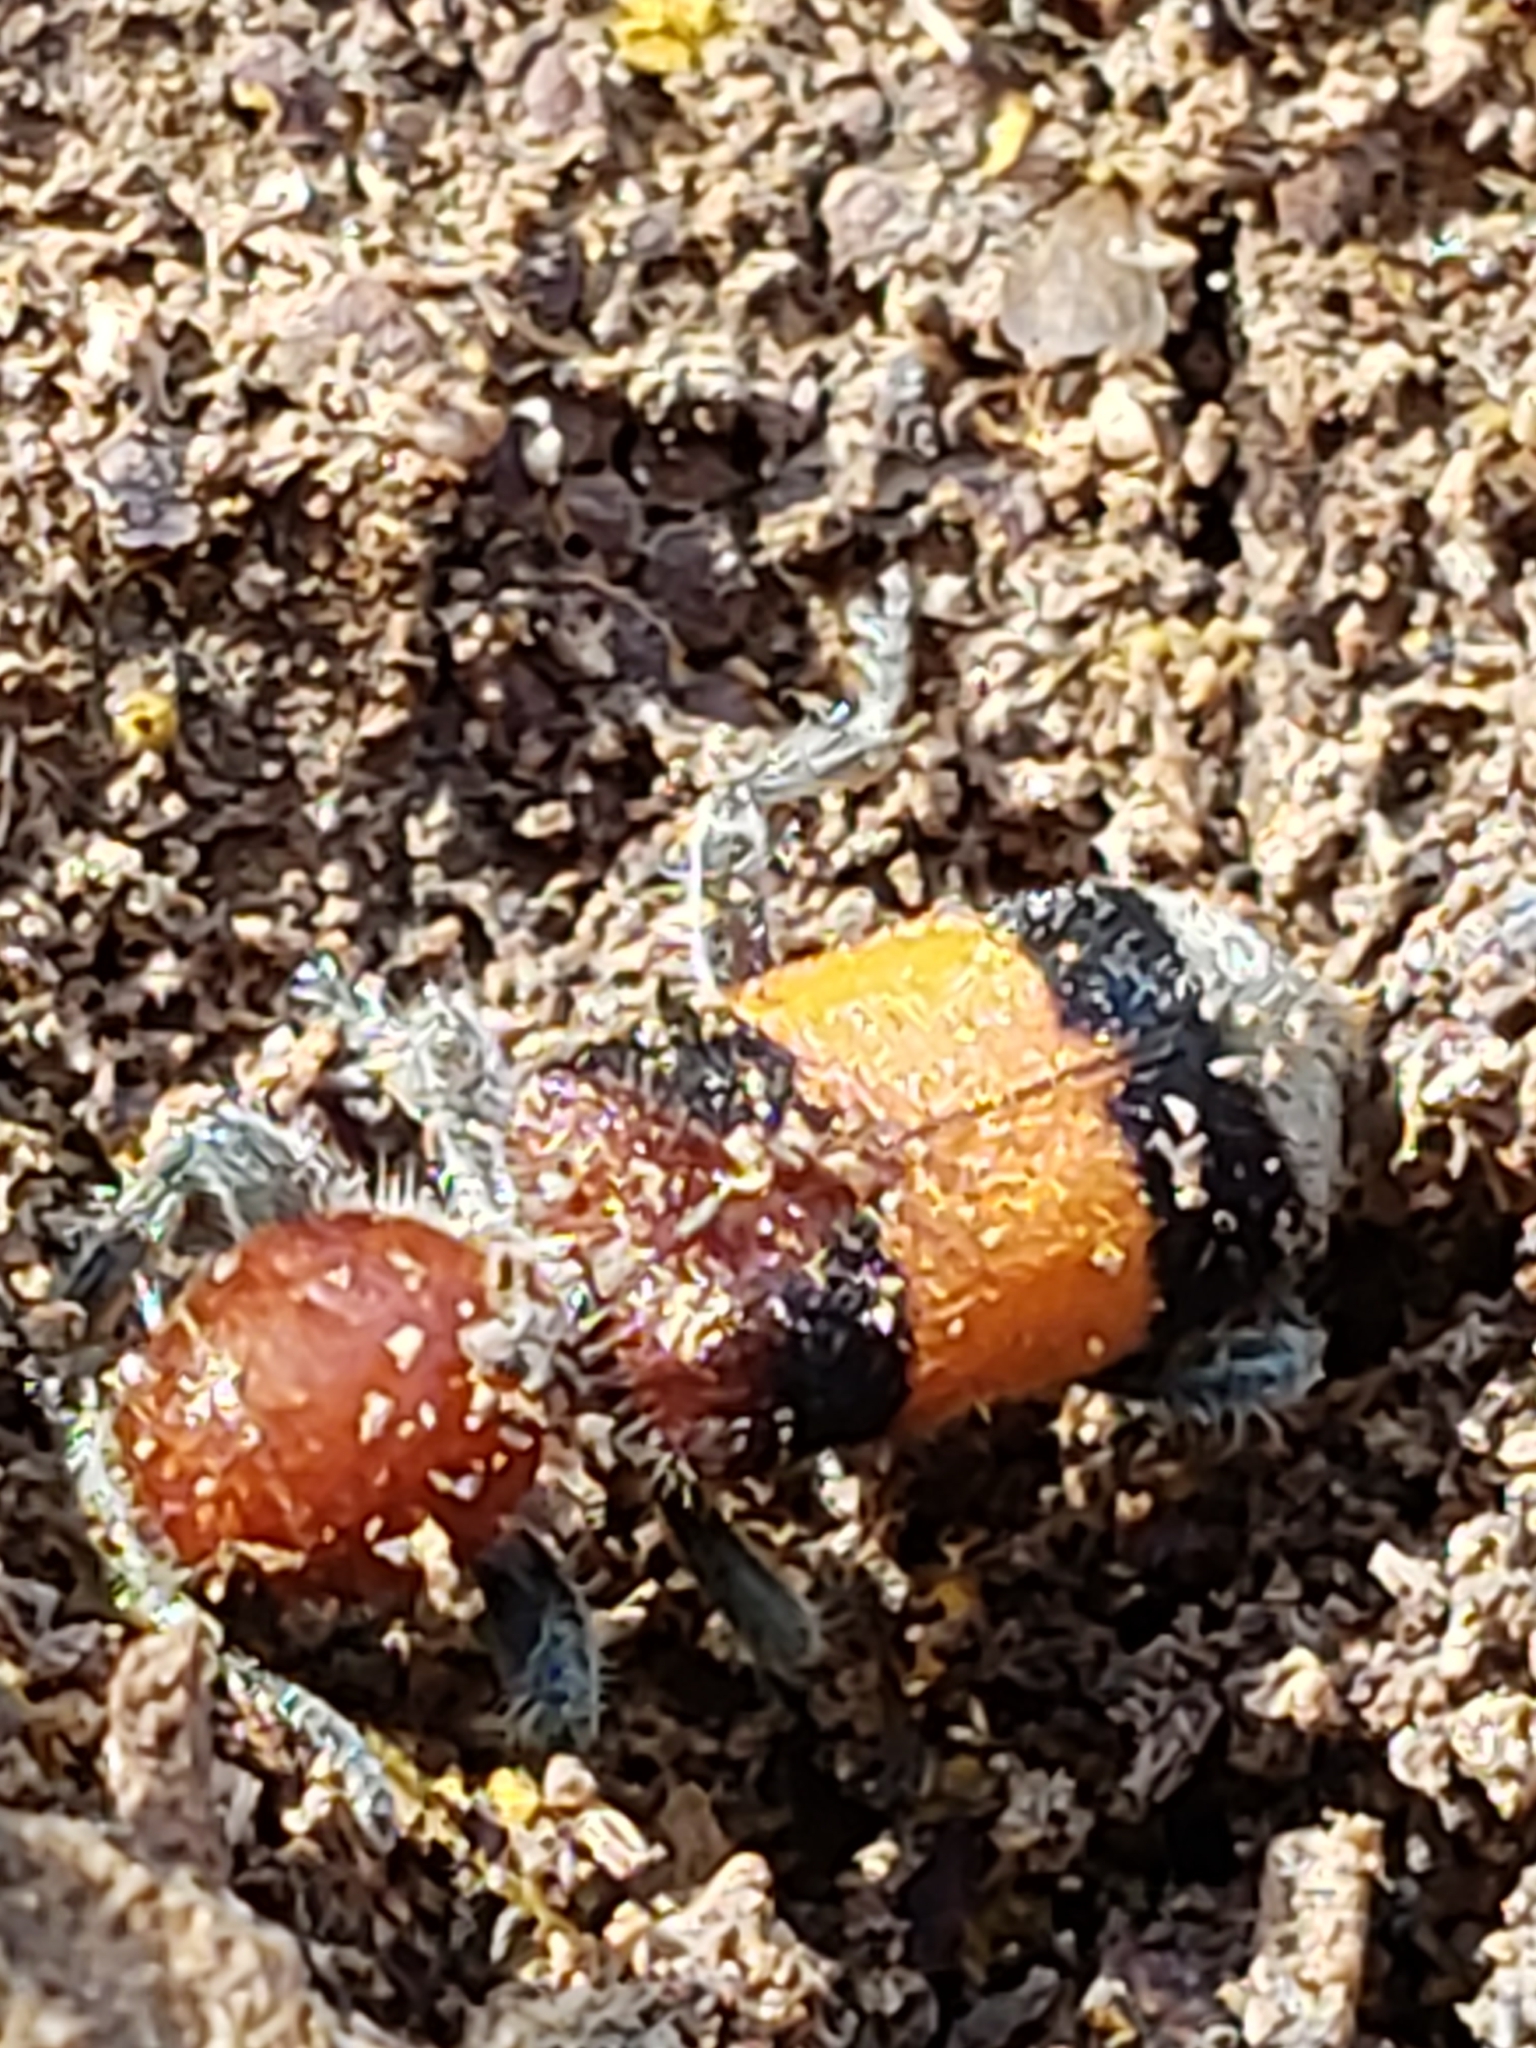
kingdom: Animalia
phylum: Arthropoda
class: Insecta
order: Coleoptera
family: Cleridae
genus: Enoclerus
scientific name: Enoclerus ichneumoneus
